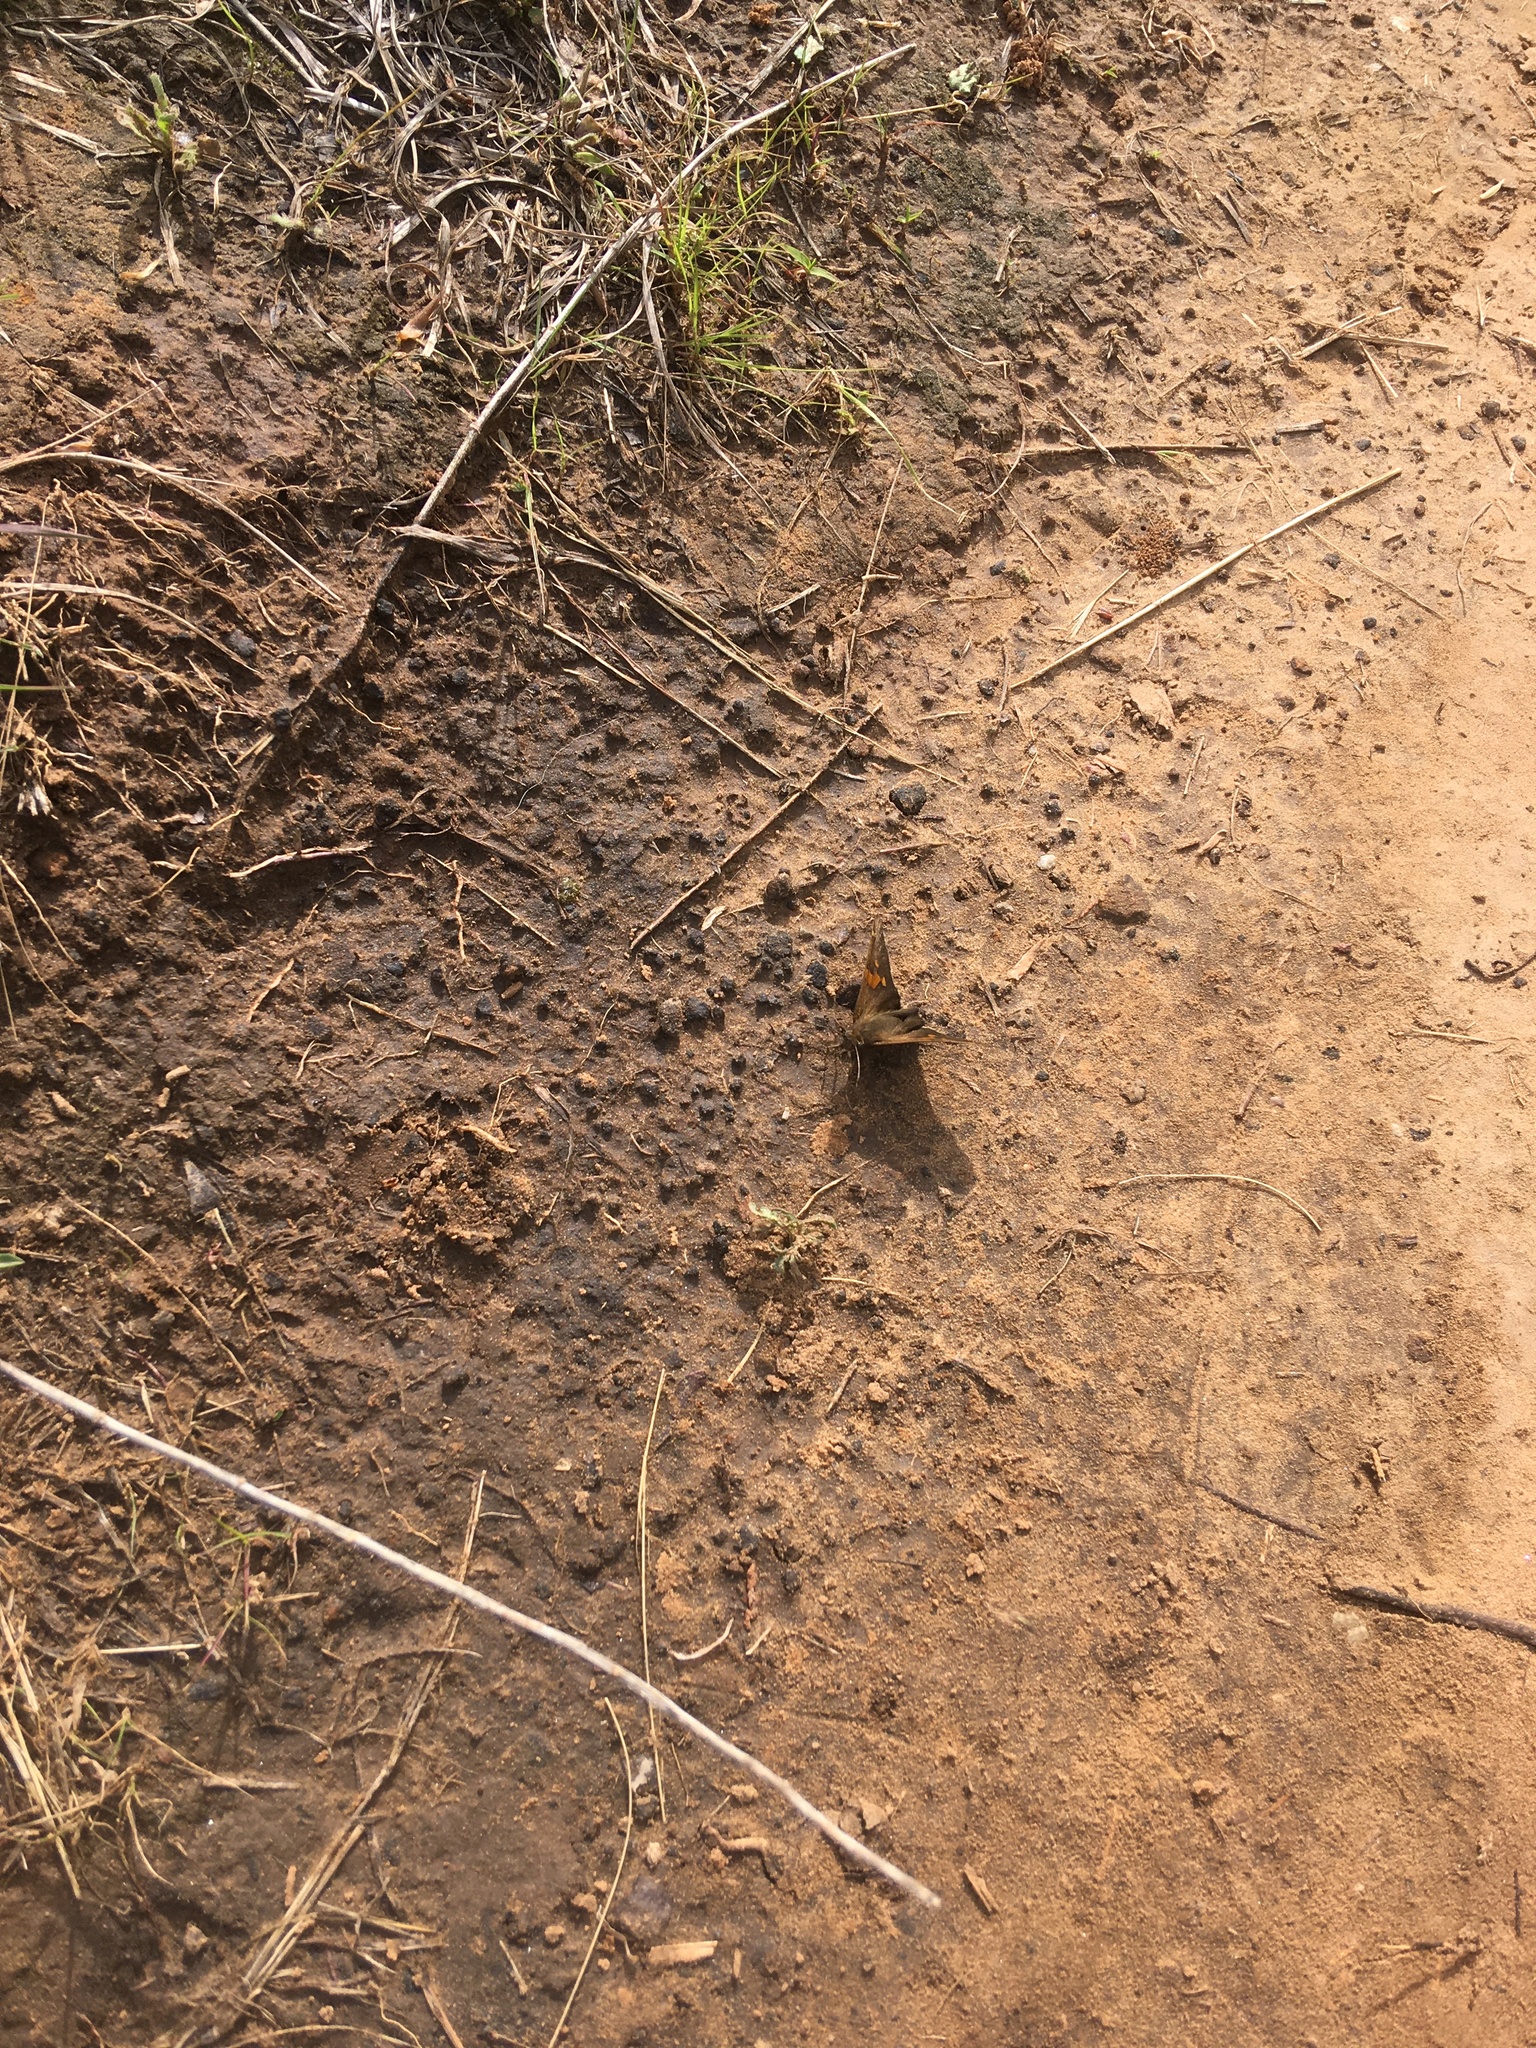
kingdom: Animalia
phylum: Arthropoda
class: Insecta
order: Lepidoptera
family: Hesperiidae
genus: Epargyreus
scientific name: Epargyreus clarus
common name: Silver-spotted skipper
